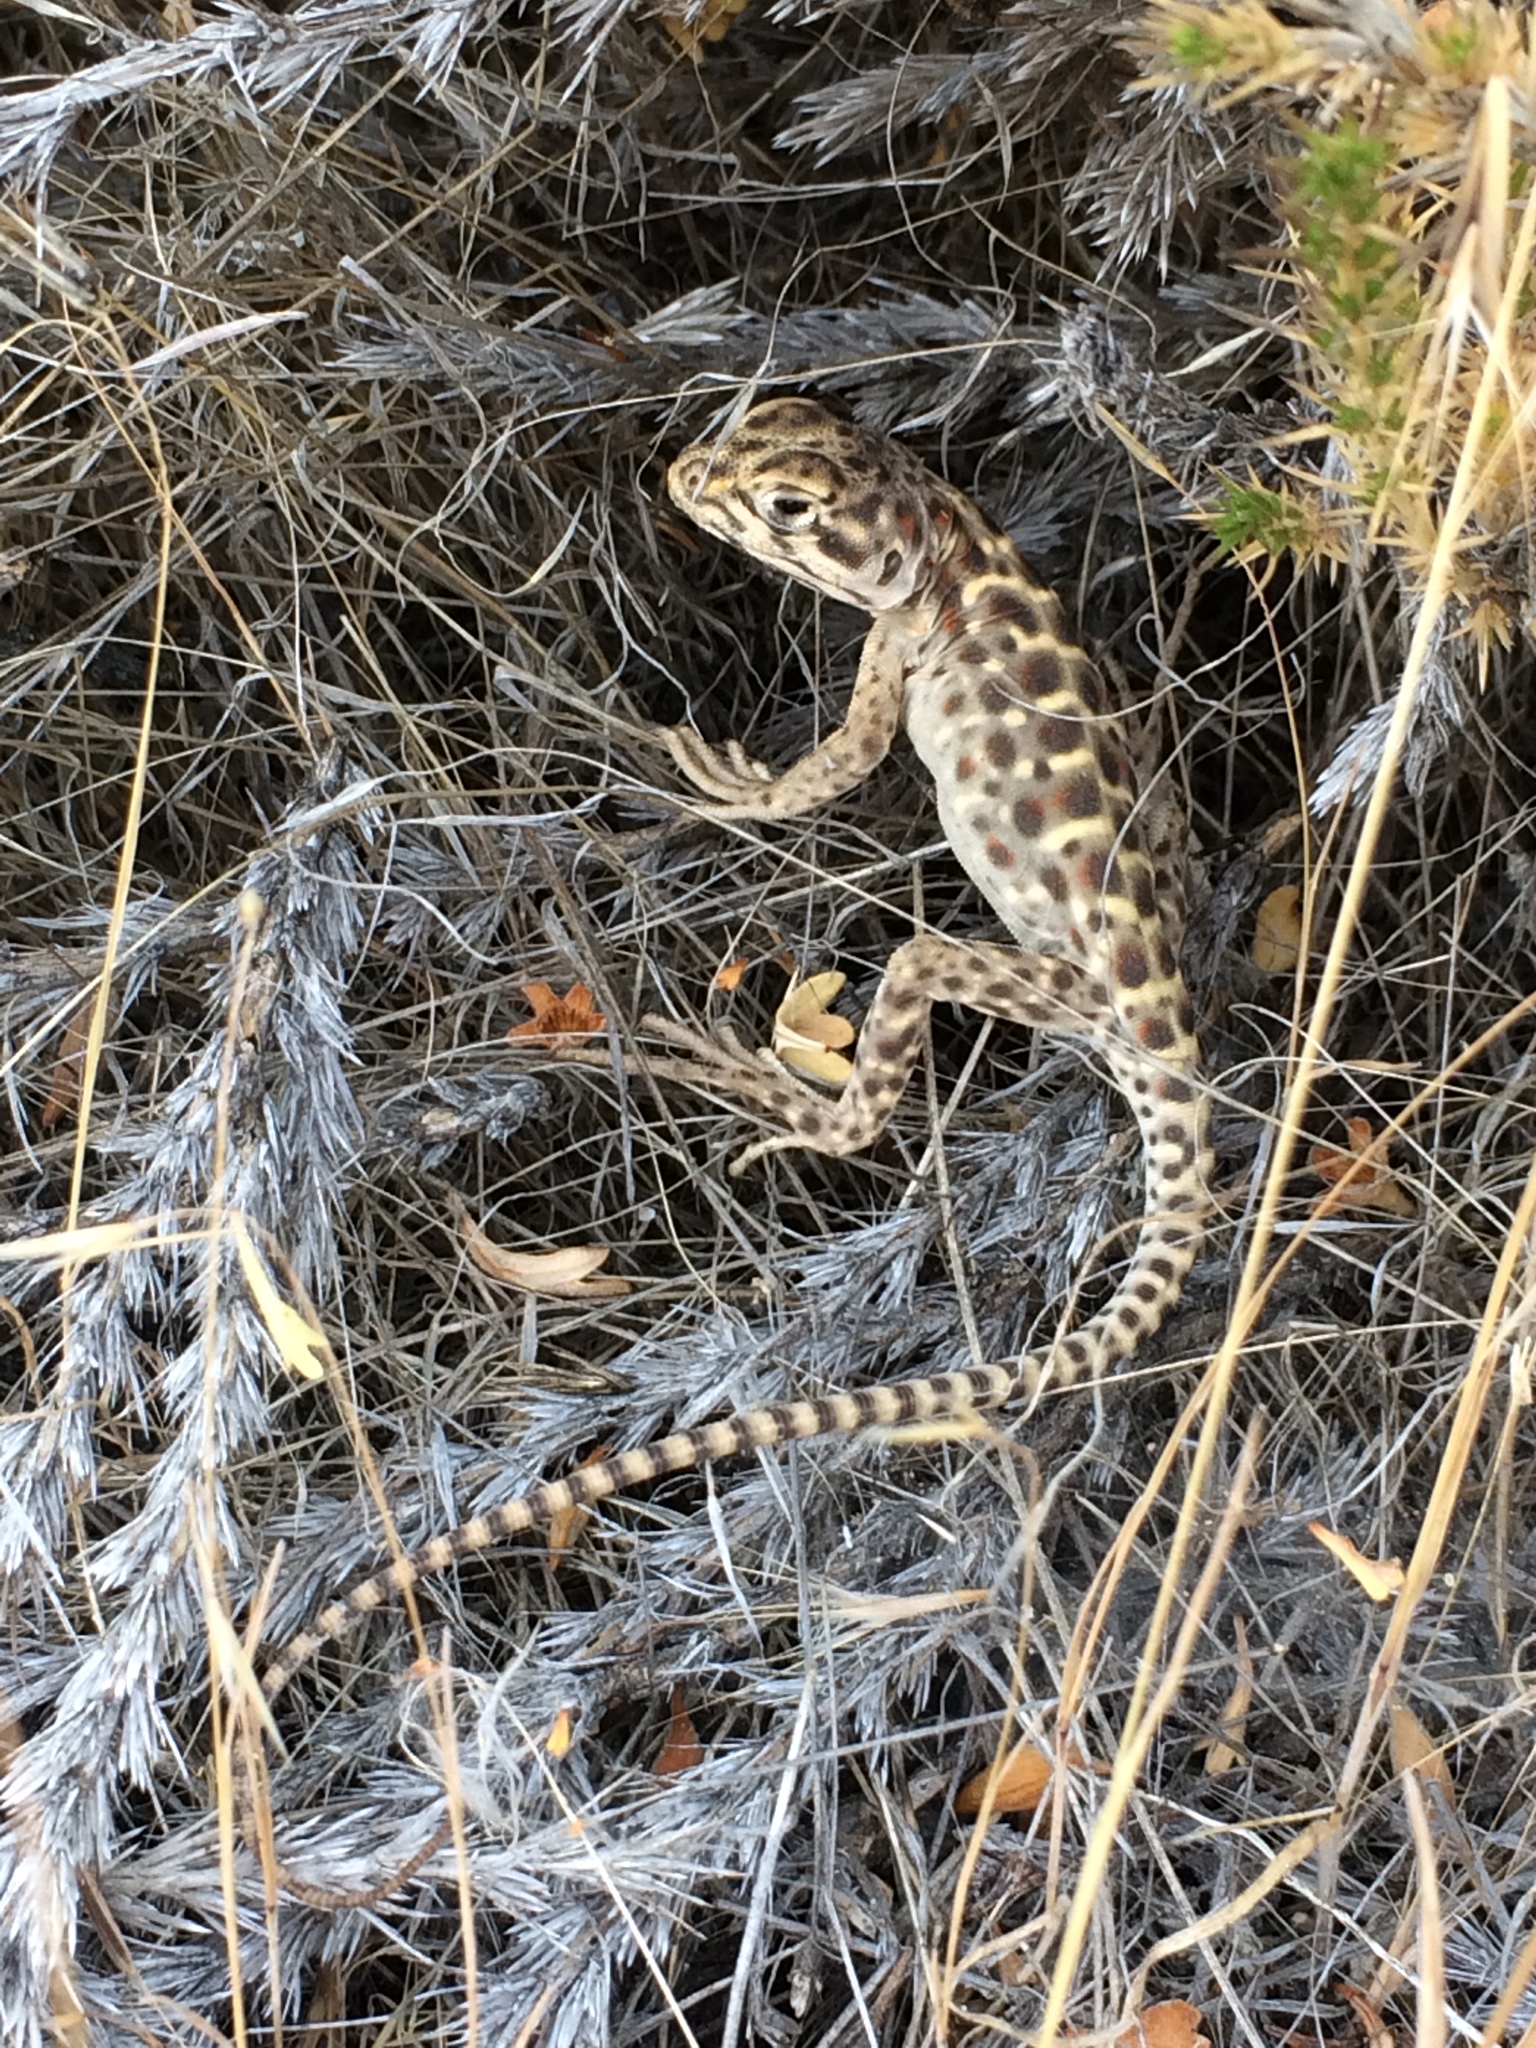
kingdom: Animalia
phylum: Chordata
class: Squamata
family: Crotaphytidae
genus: Gambelia
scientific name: Gambelia wislizenii
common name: Longnose leopard lizard
